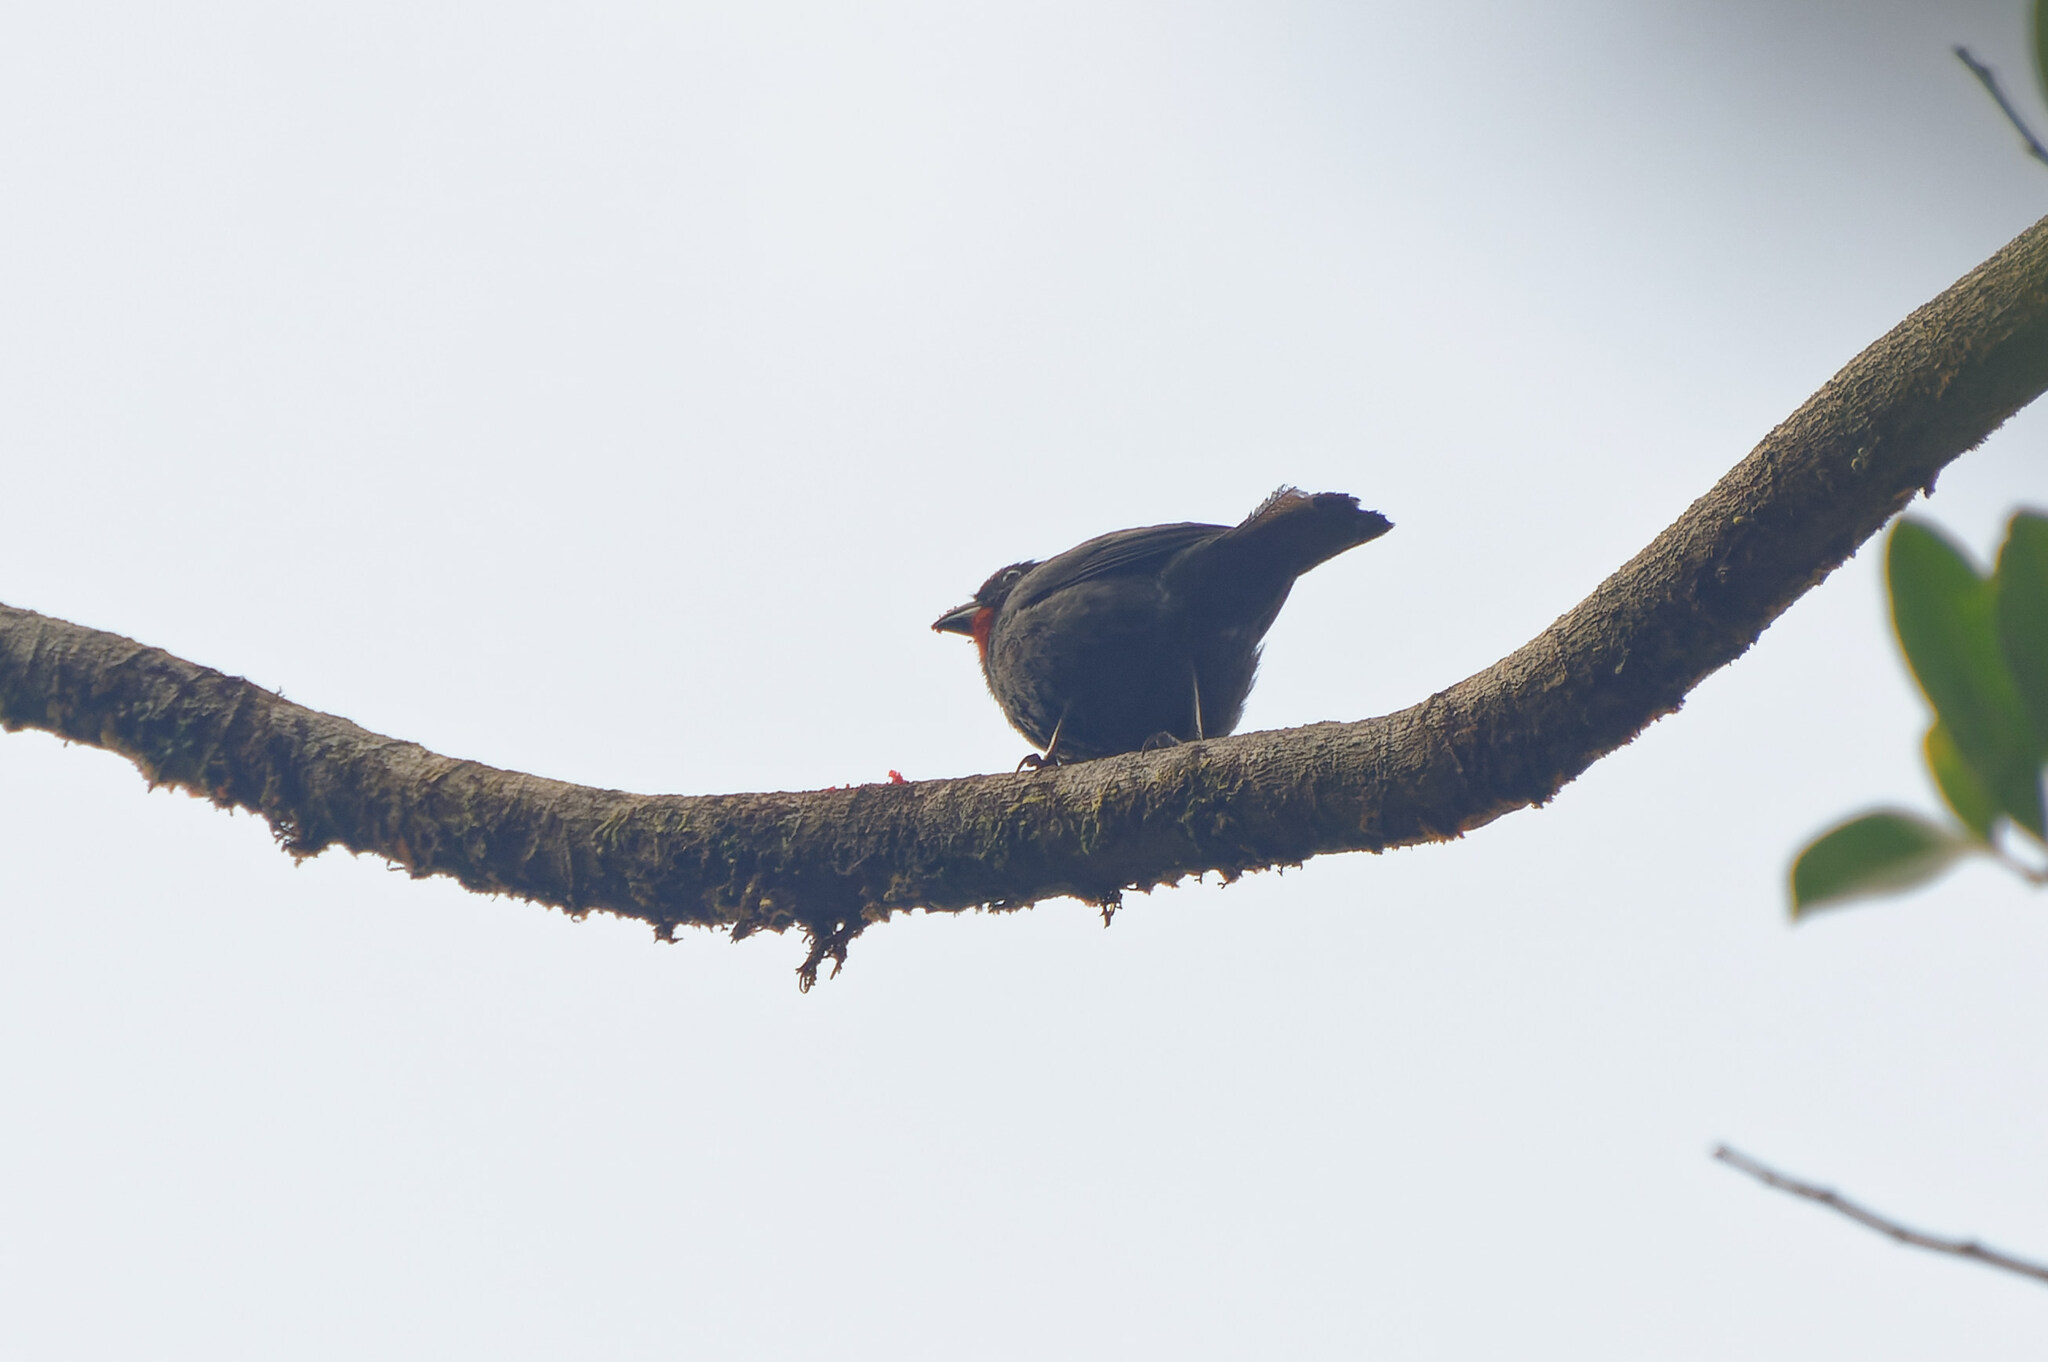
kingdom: Animalia
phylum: Chordata
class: Aves
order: Passeriformes
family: Thraupidae
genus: Loxigilla
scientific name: Loxigilla noctis
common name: Lesser antillean bullfinch
